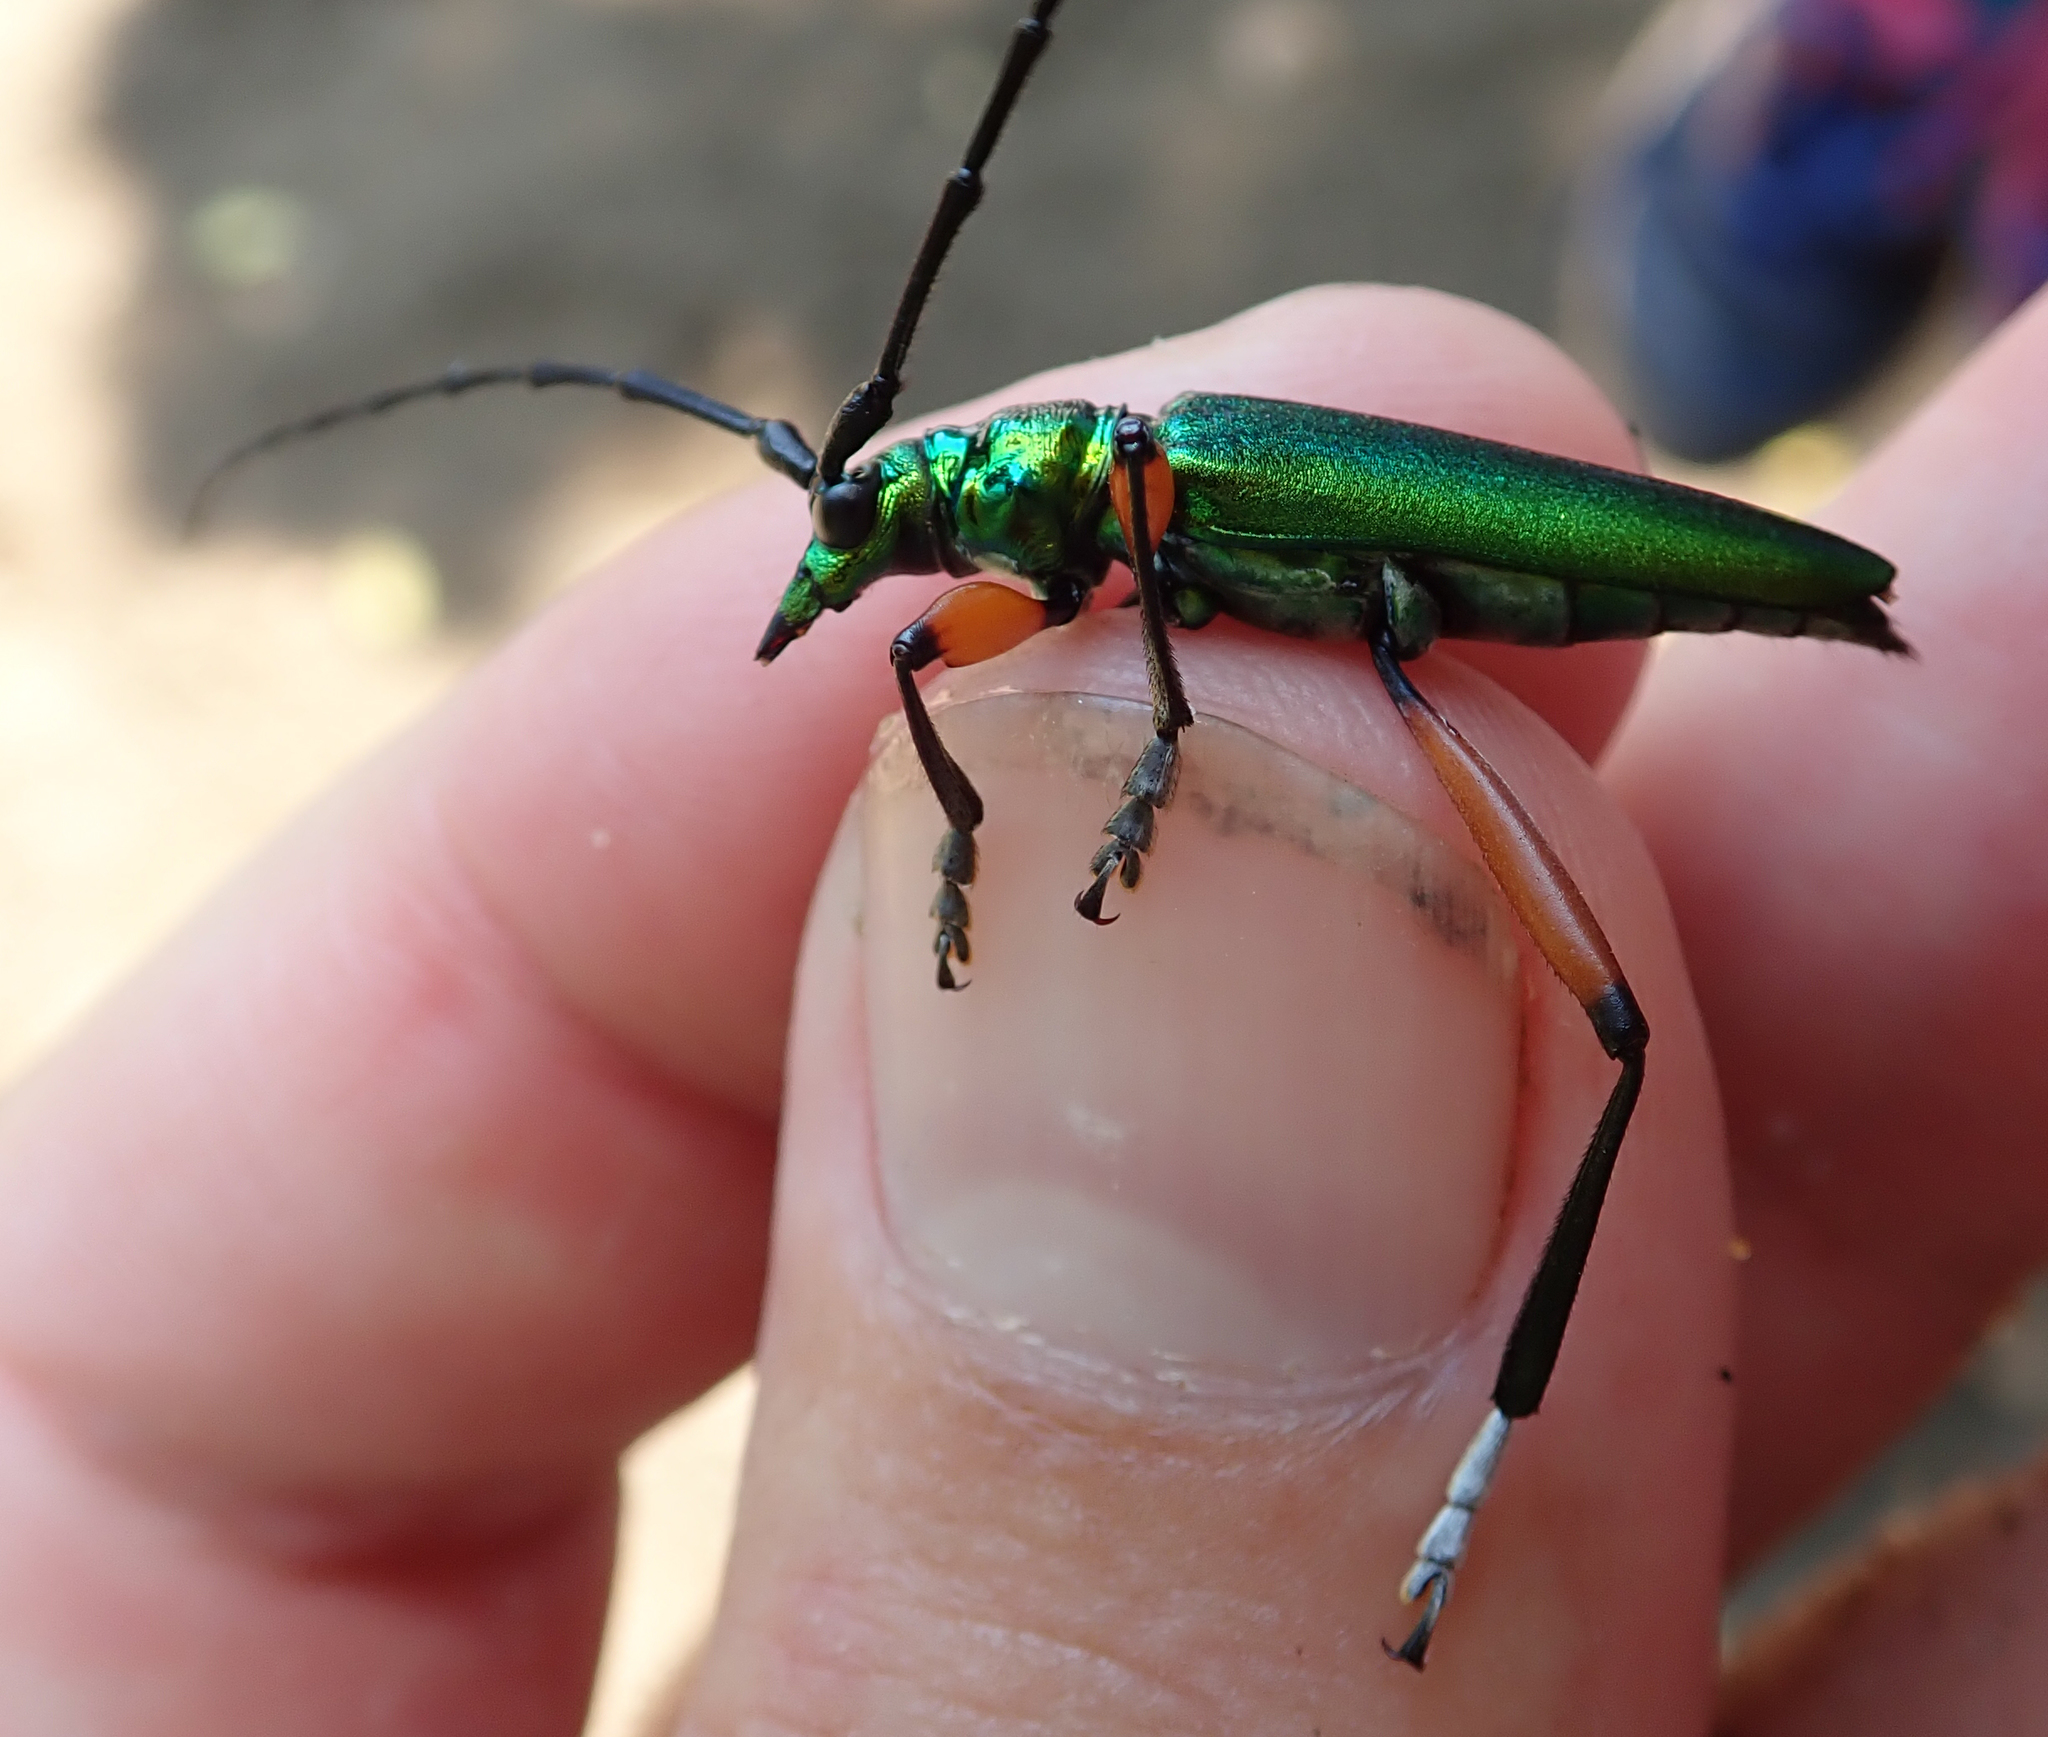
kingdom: Animalia
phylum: Arthropoda
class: Insecta
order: Coleoptera
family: Cerambycidae
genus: Philematium
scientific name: Philematium virens
